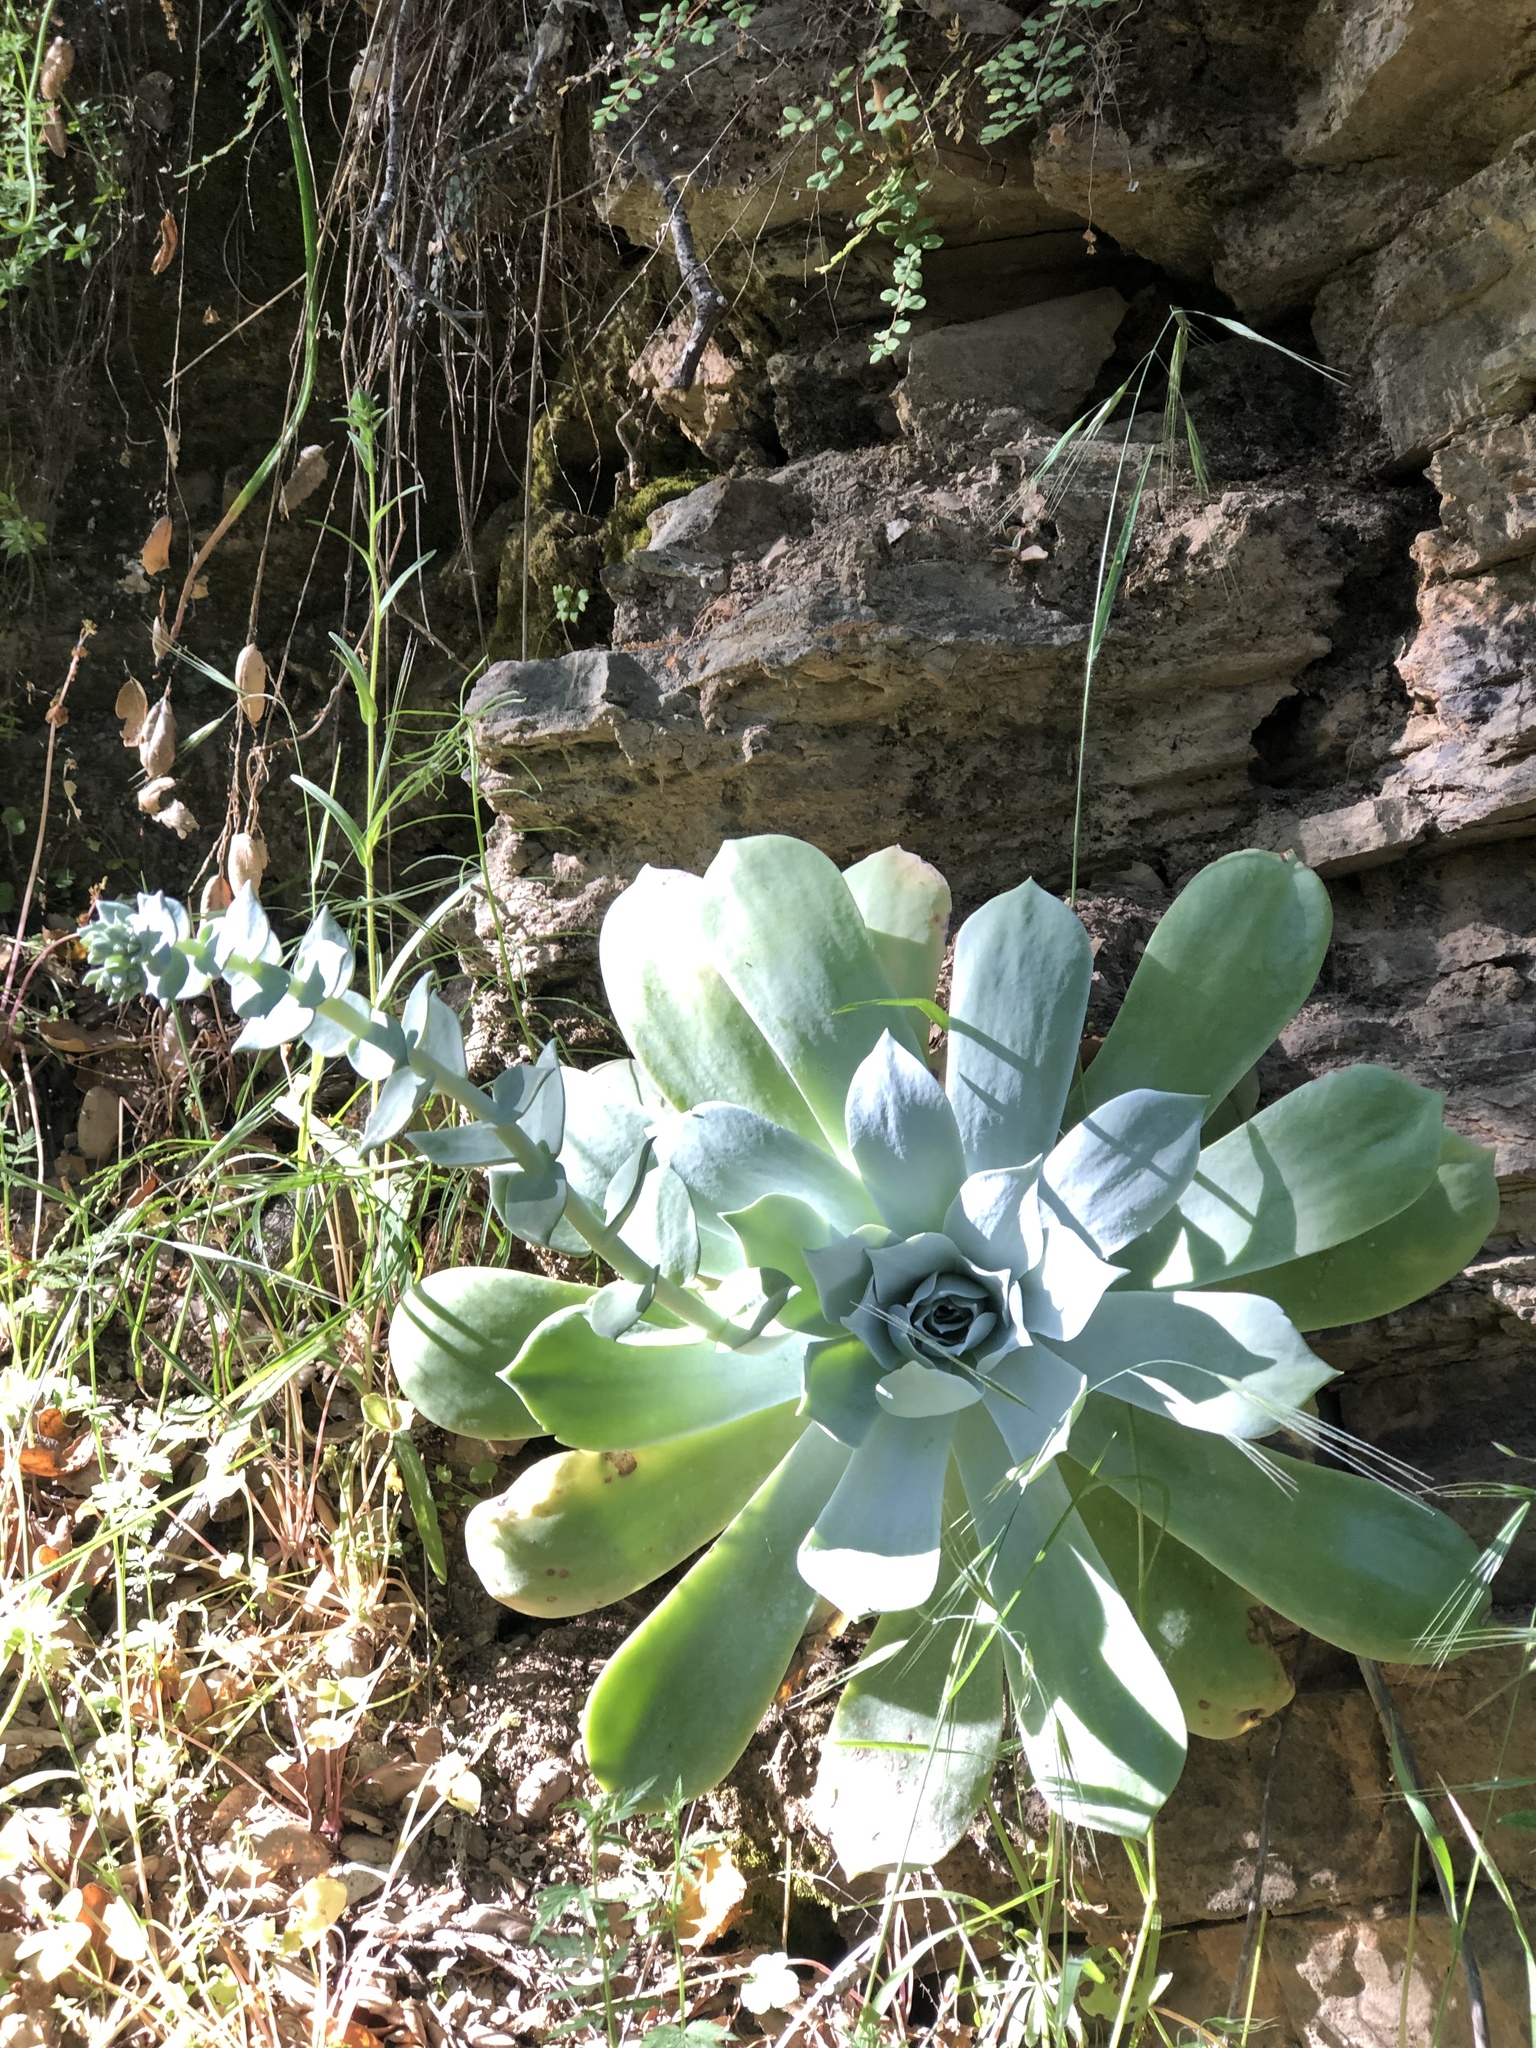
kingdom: Plantae
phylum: Tracheophyta
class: Magnoliopsida
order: Saxifragales
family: Crassulaceae
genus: Dudleya
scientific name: Dudleya pulverulenta
